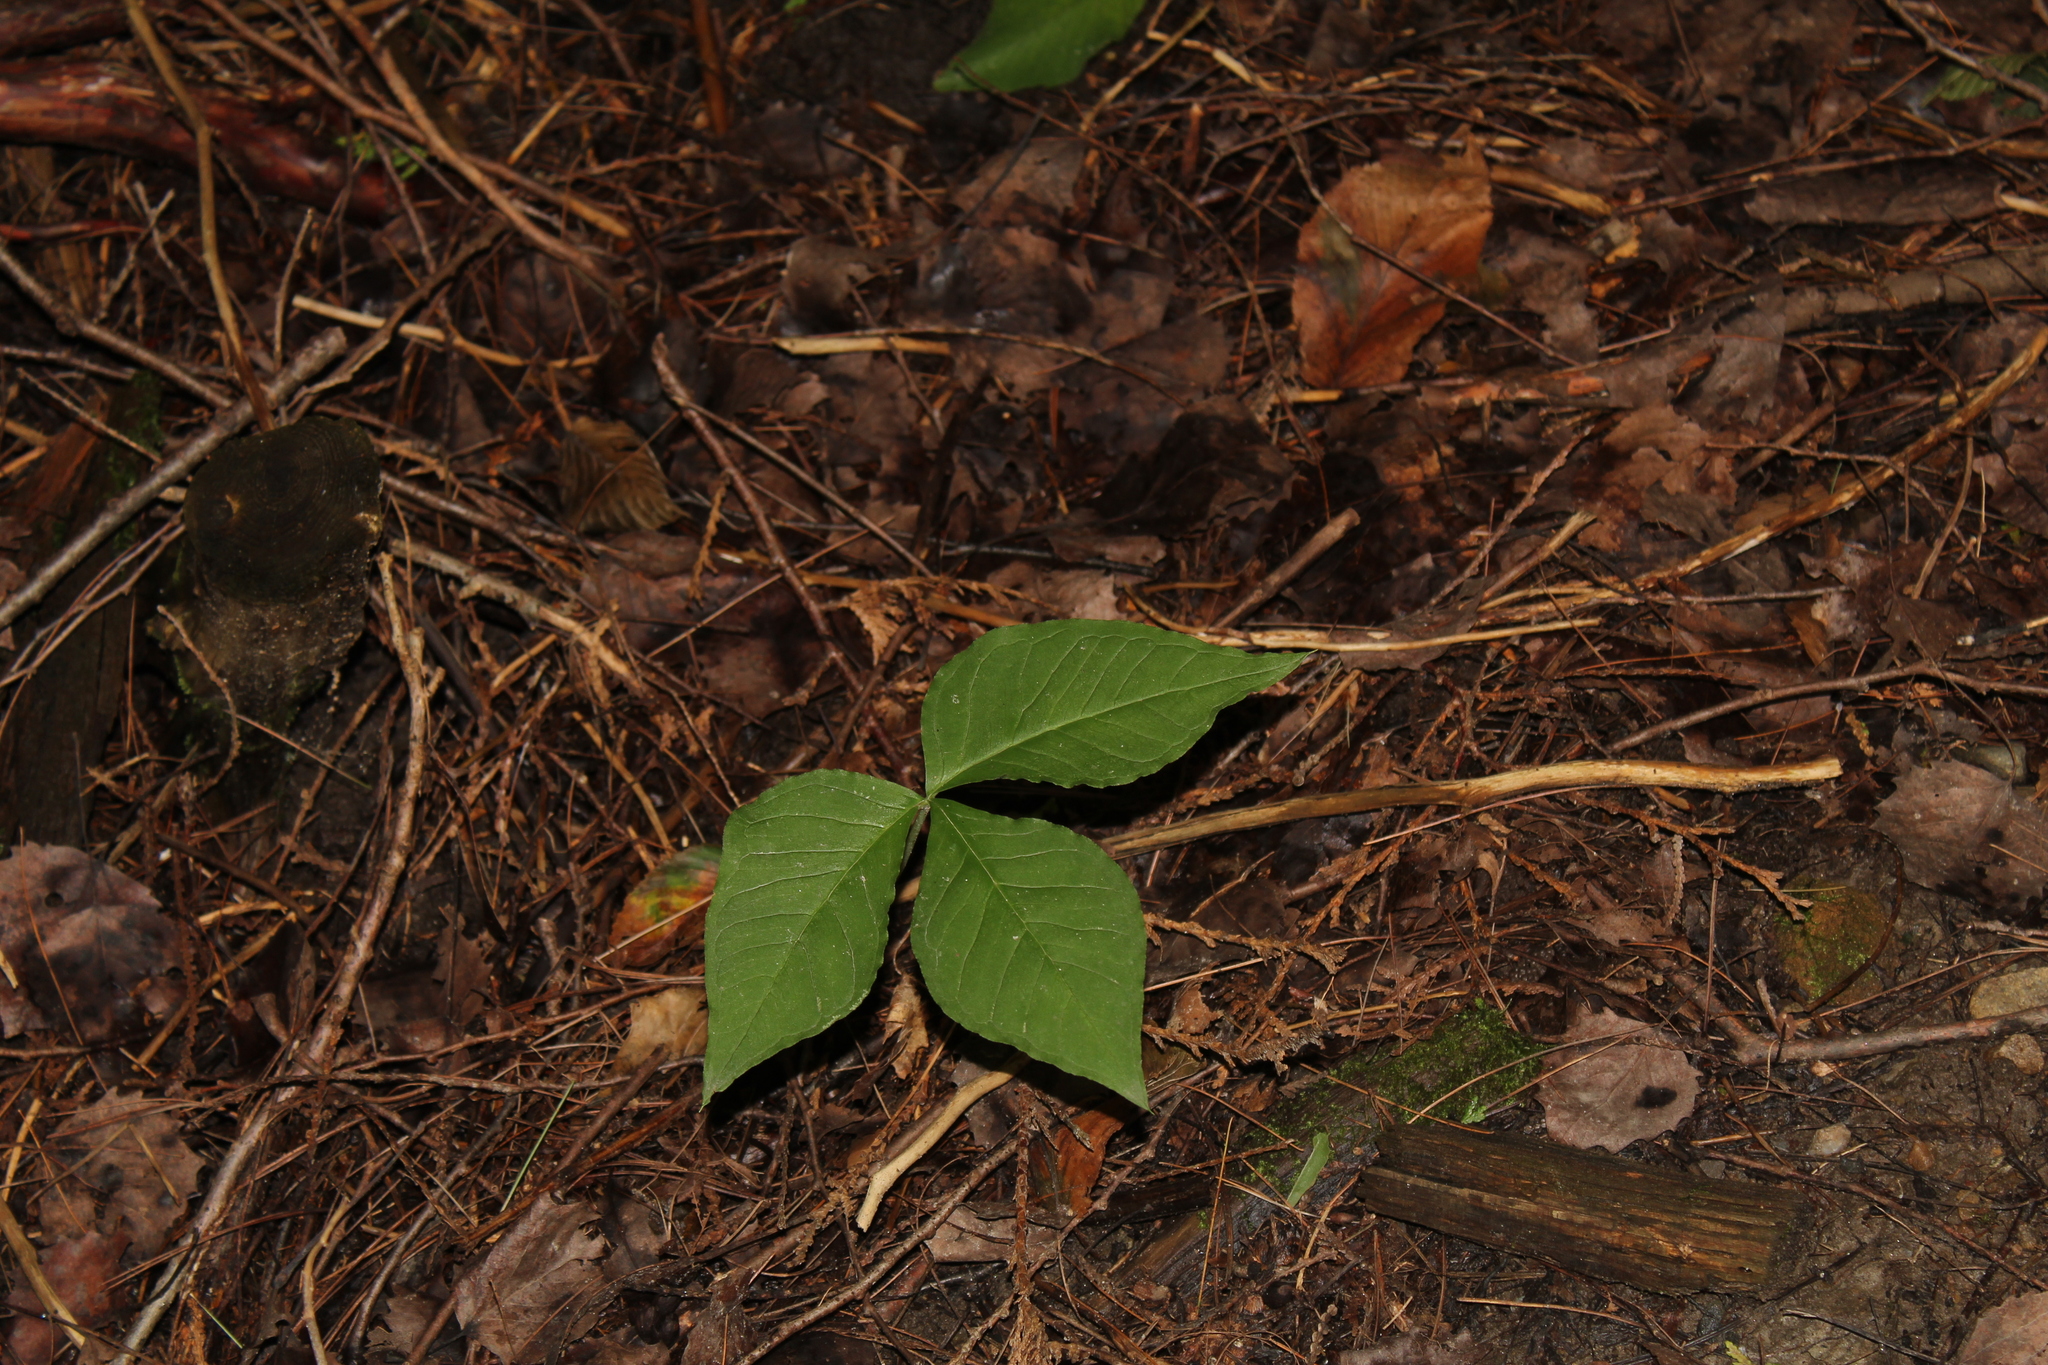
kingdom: Plantae
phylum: Tracheophyta
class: Liliopsida
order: Alismatales
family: Araceae
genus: Arisaema
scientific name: Arisaema
